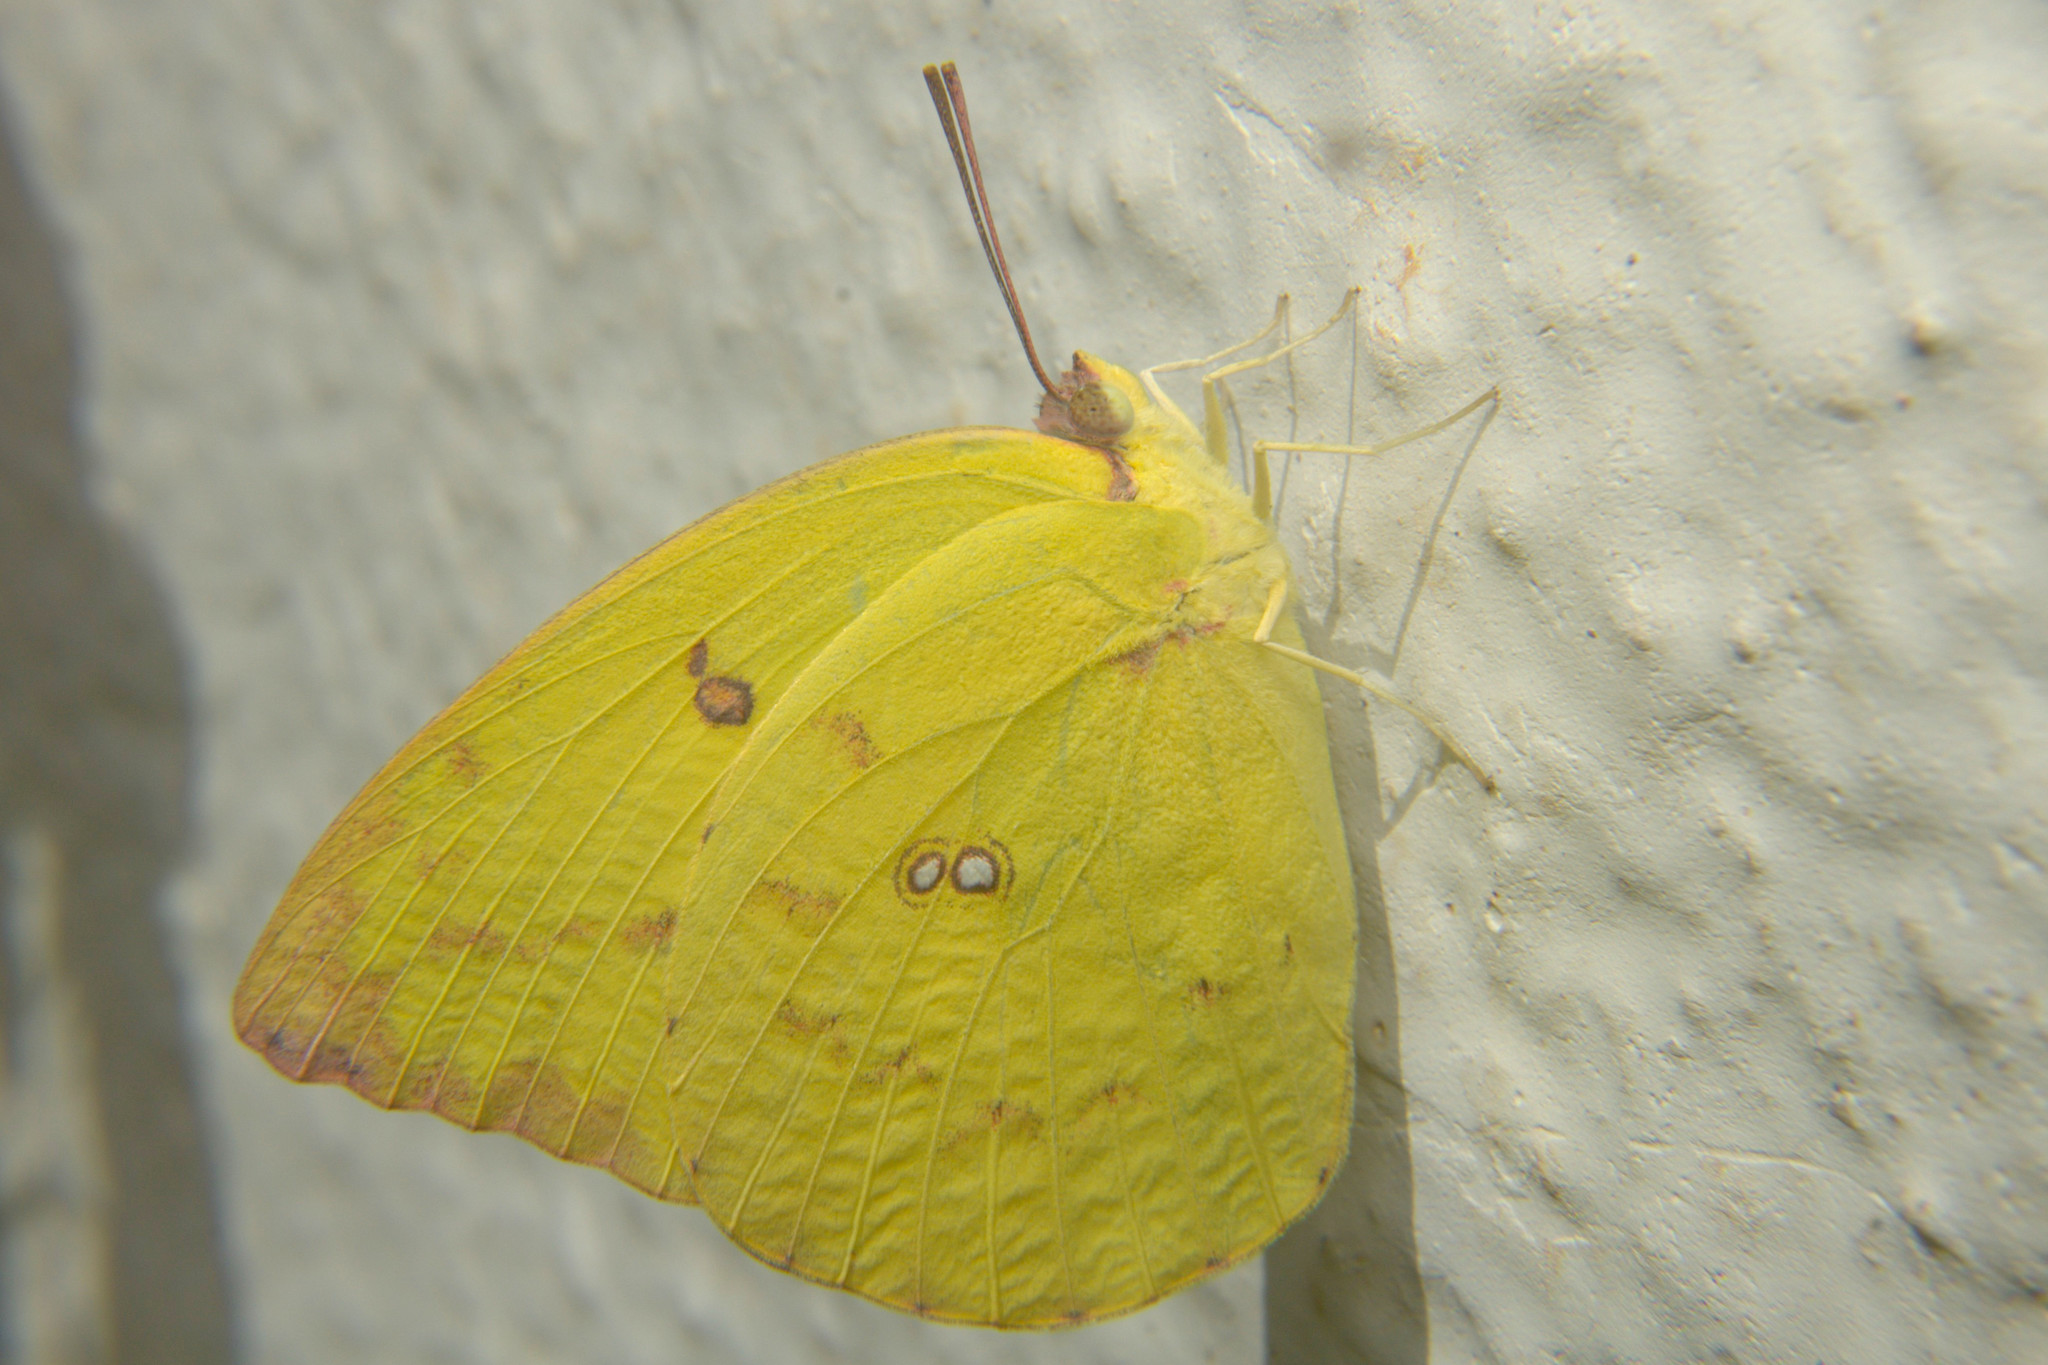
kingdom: Animalia
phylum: Arthropoda
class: Insecta
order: Lepidoptera
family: Pieridae
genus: Catopsilia
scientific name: Catopsilia pomona
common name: Common emigrant
